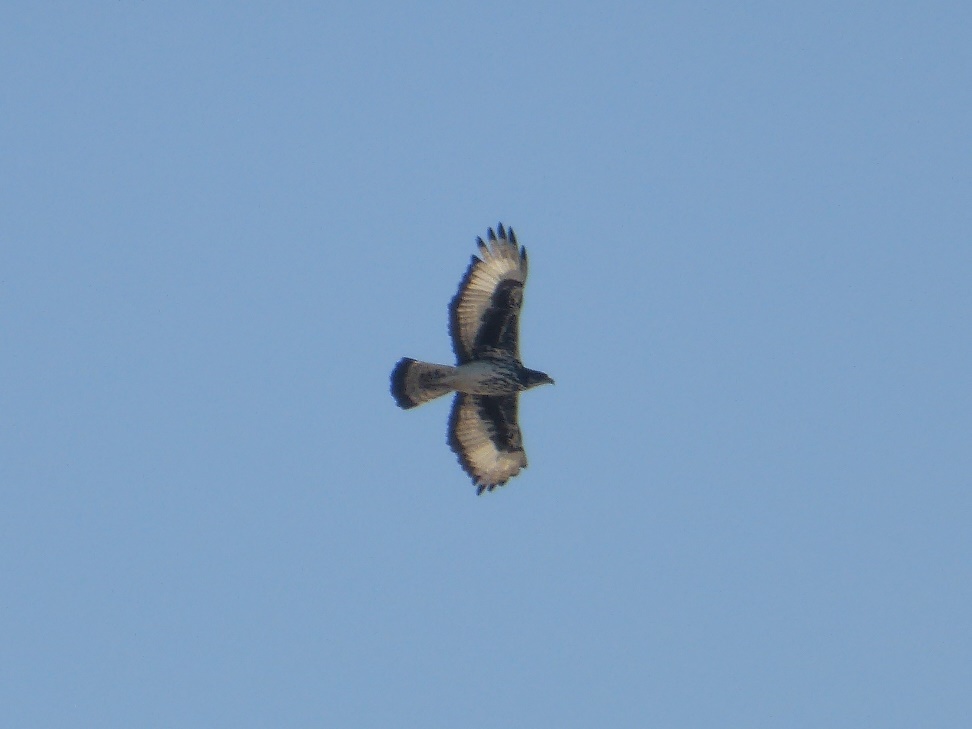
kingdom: Animalia
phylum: Chordata
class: Aves
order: Accipitriformes
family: Accipitridae
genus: Aquila
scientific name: Aquila spilogaster
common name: African hawk-eagle
